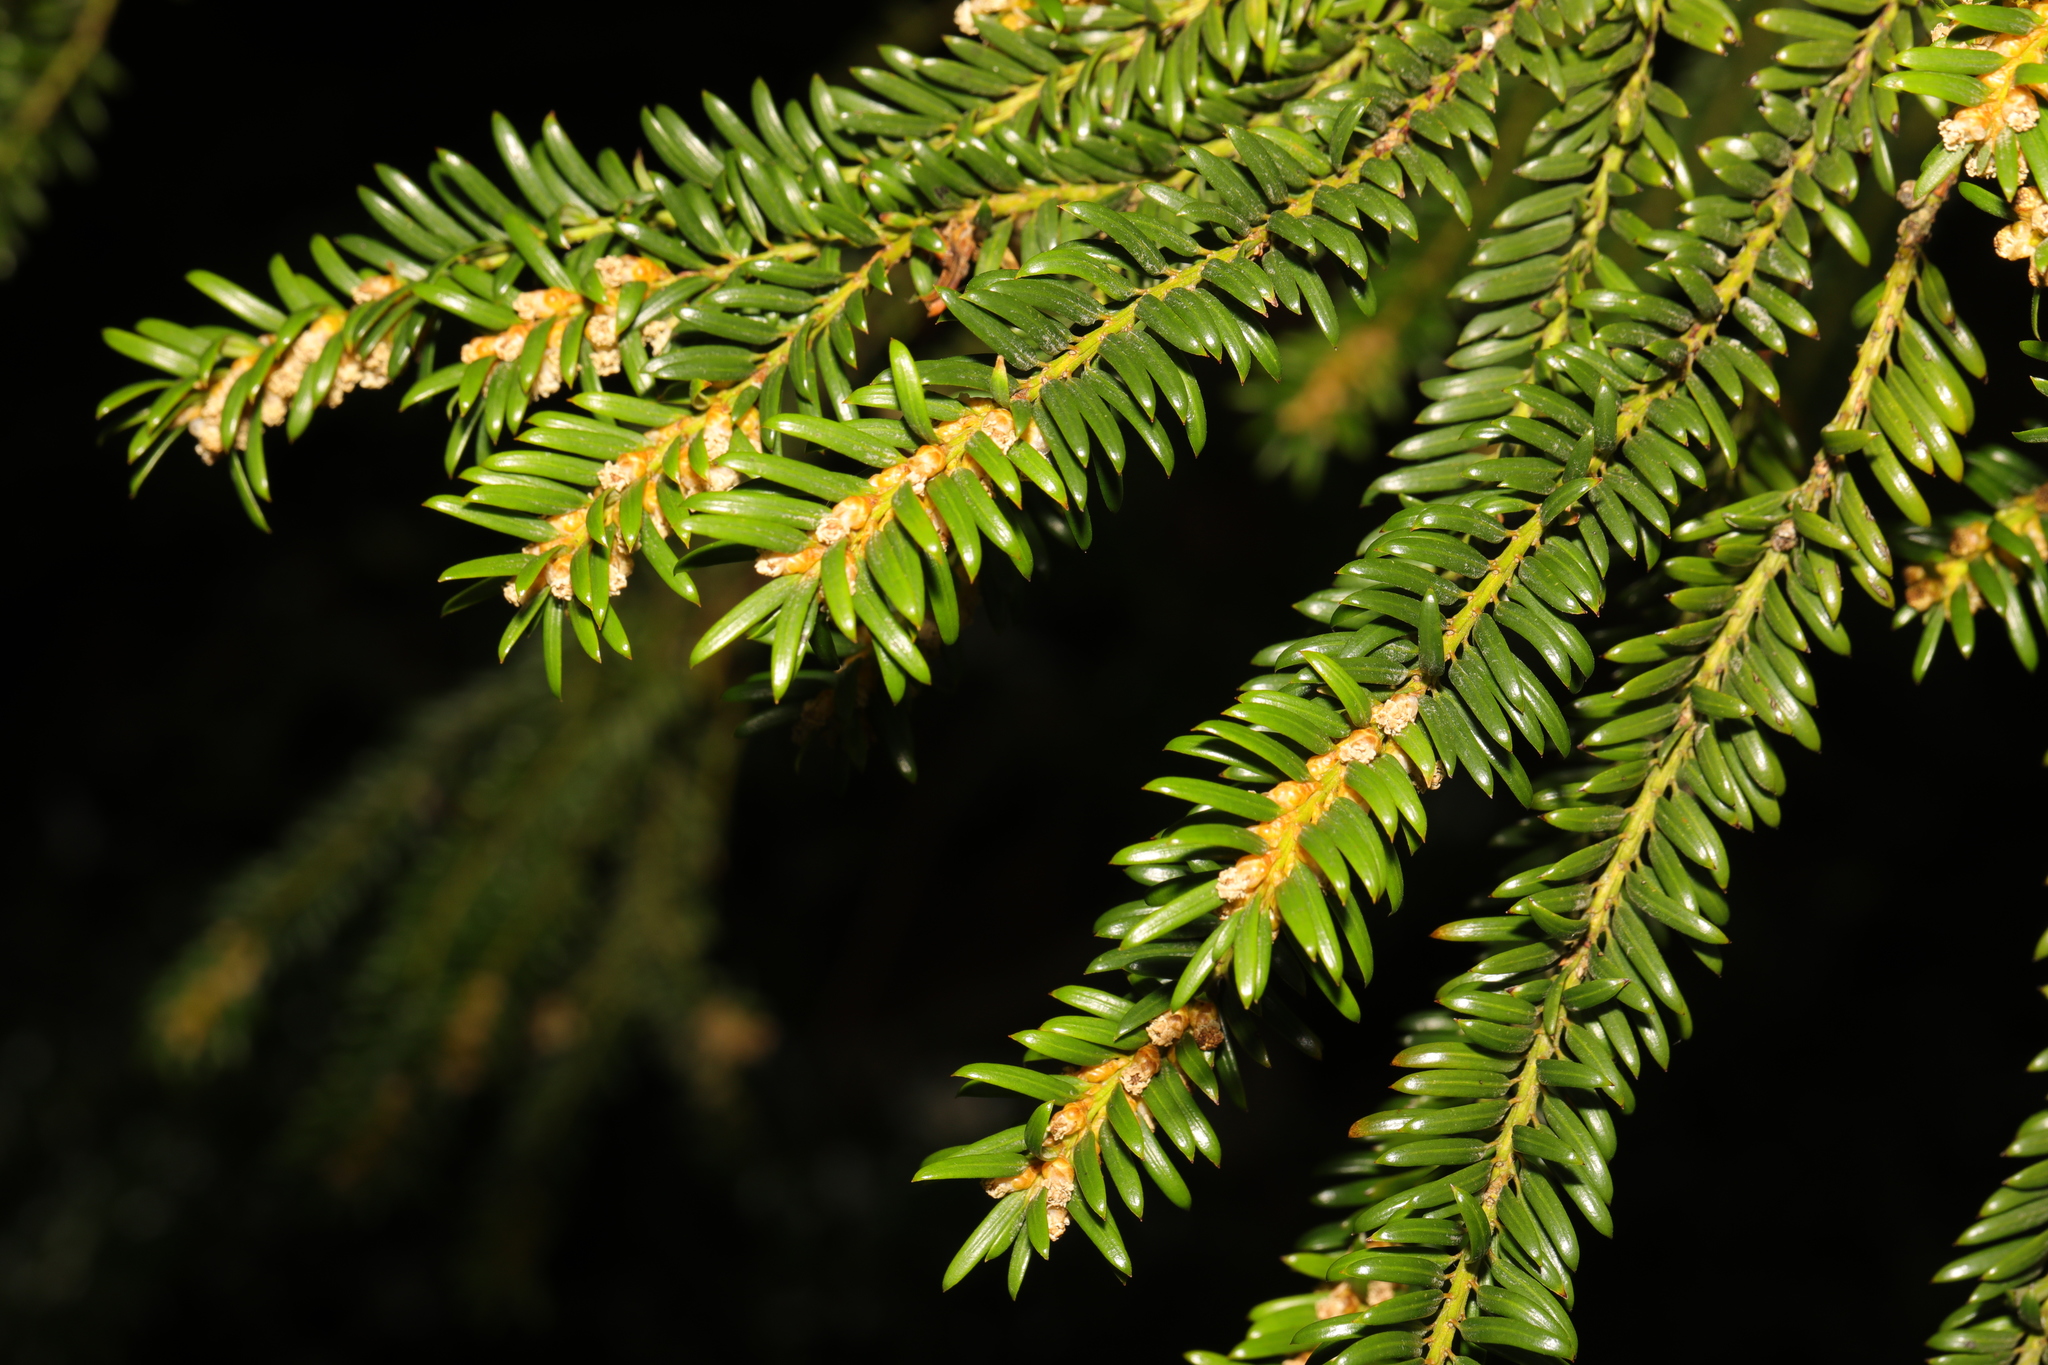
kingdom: Plantae
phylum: Tracheophyta
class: Pinopsida
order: Pinales
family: Taxaceae
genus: Taxus
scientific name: Taxus baccata
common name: Yew
